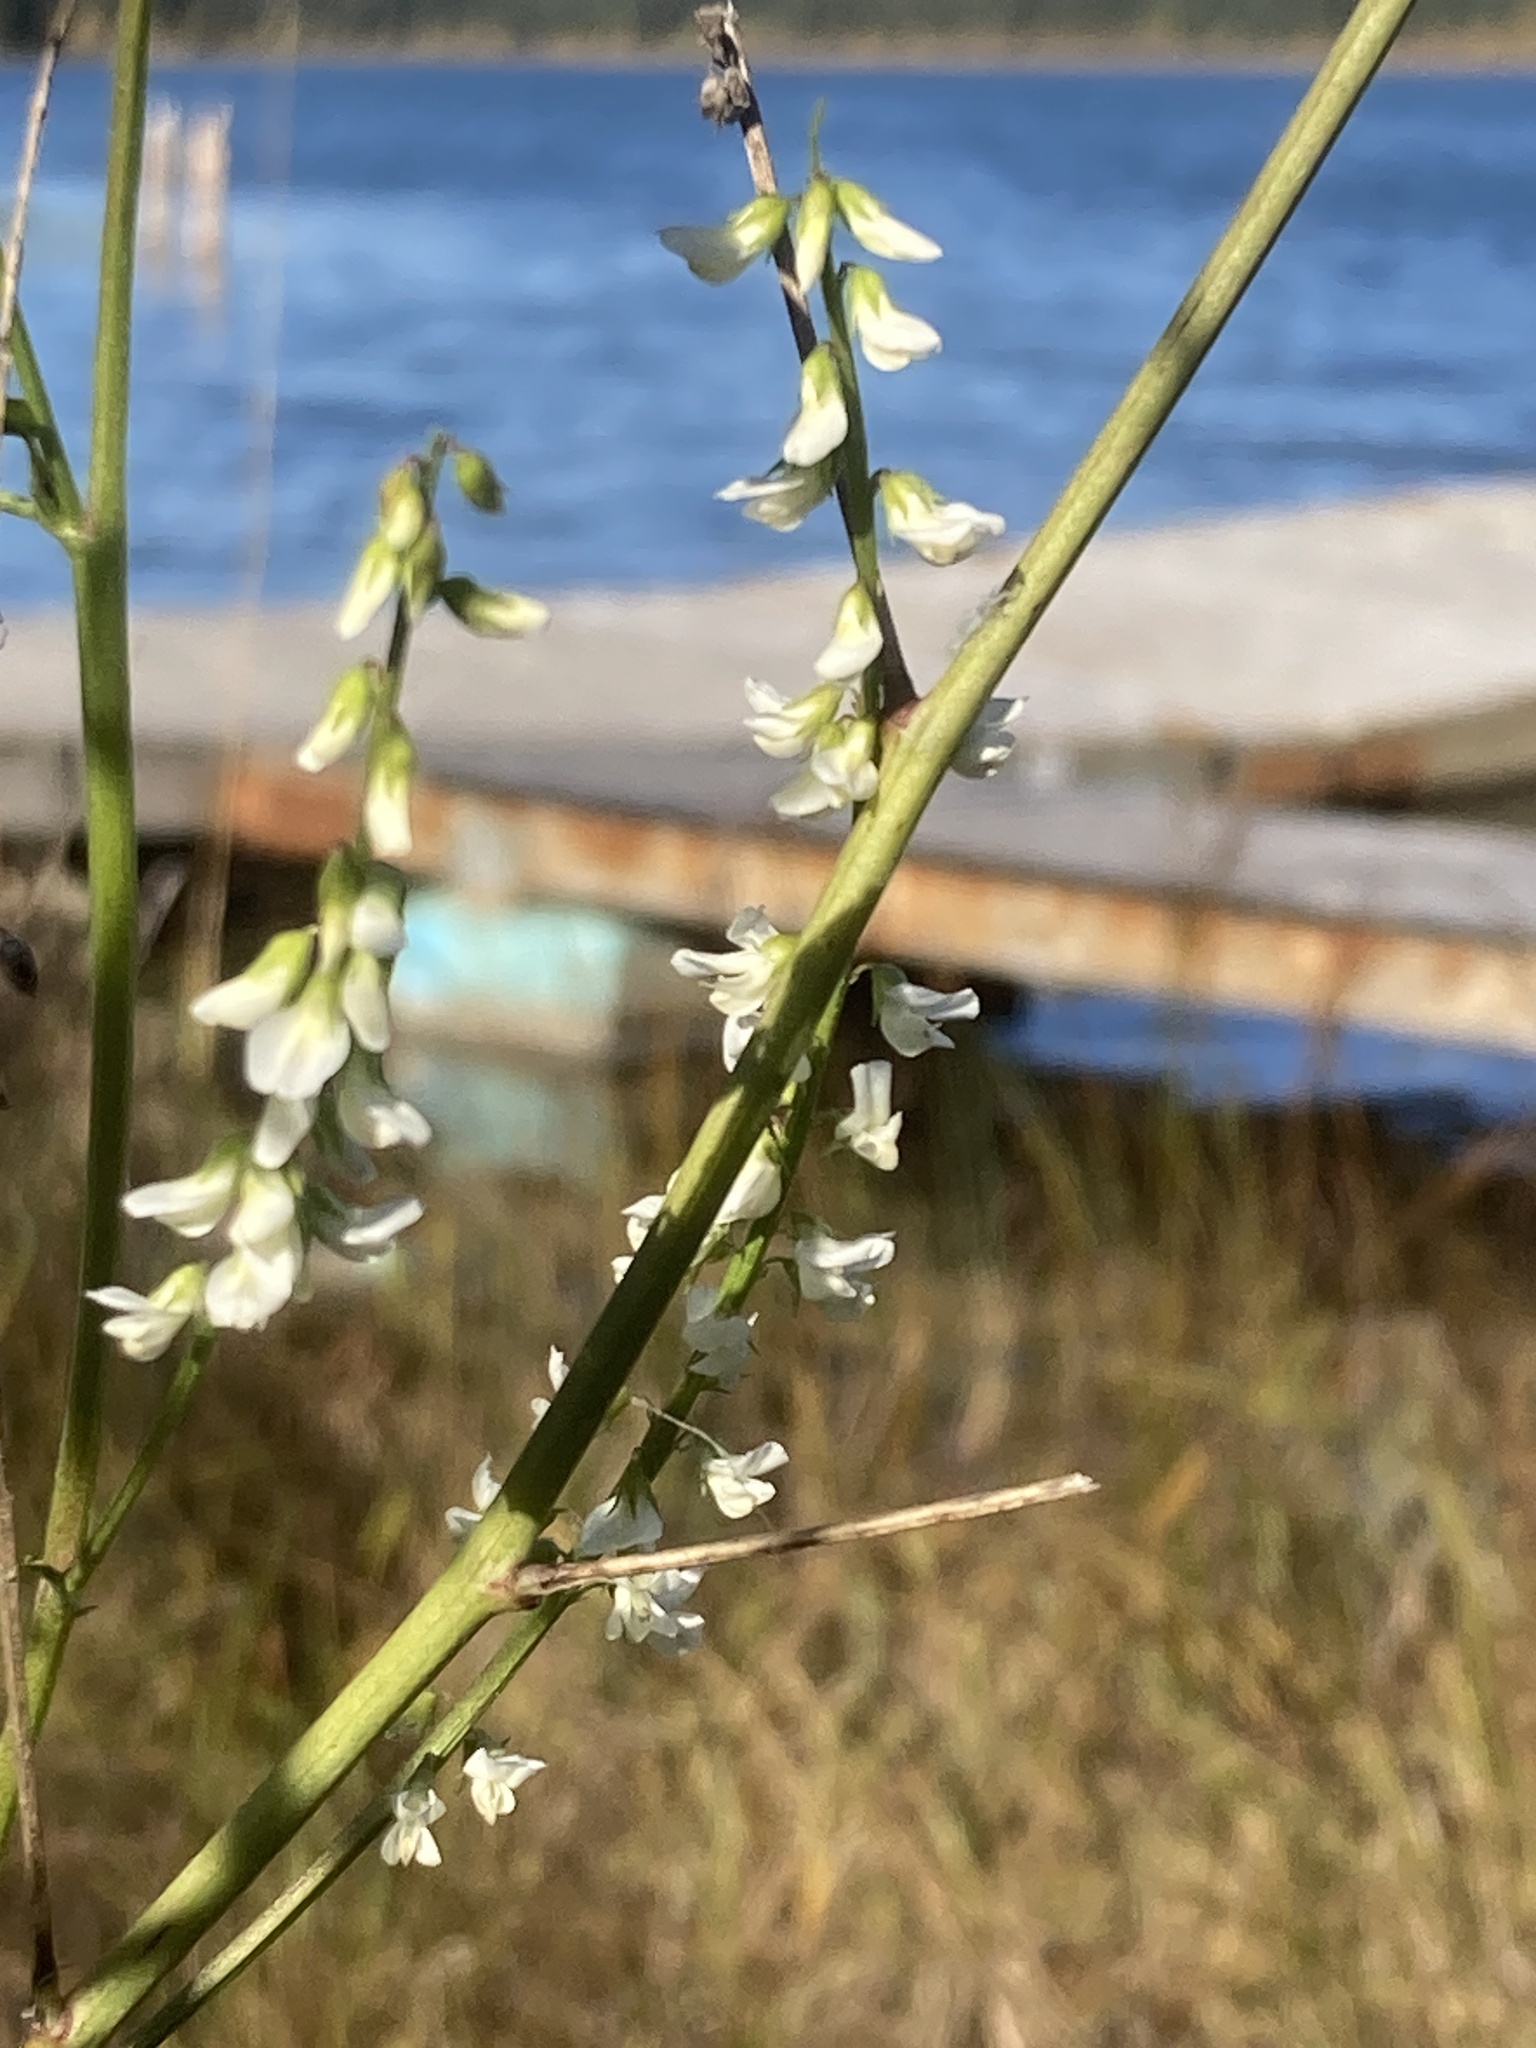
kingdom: Plantae
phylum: Tracheophyta
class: Magnoliopsida
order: Fabales
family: Fabaceae
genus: Melilotus
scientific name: Melilotus albus
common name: White melilot
